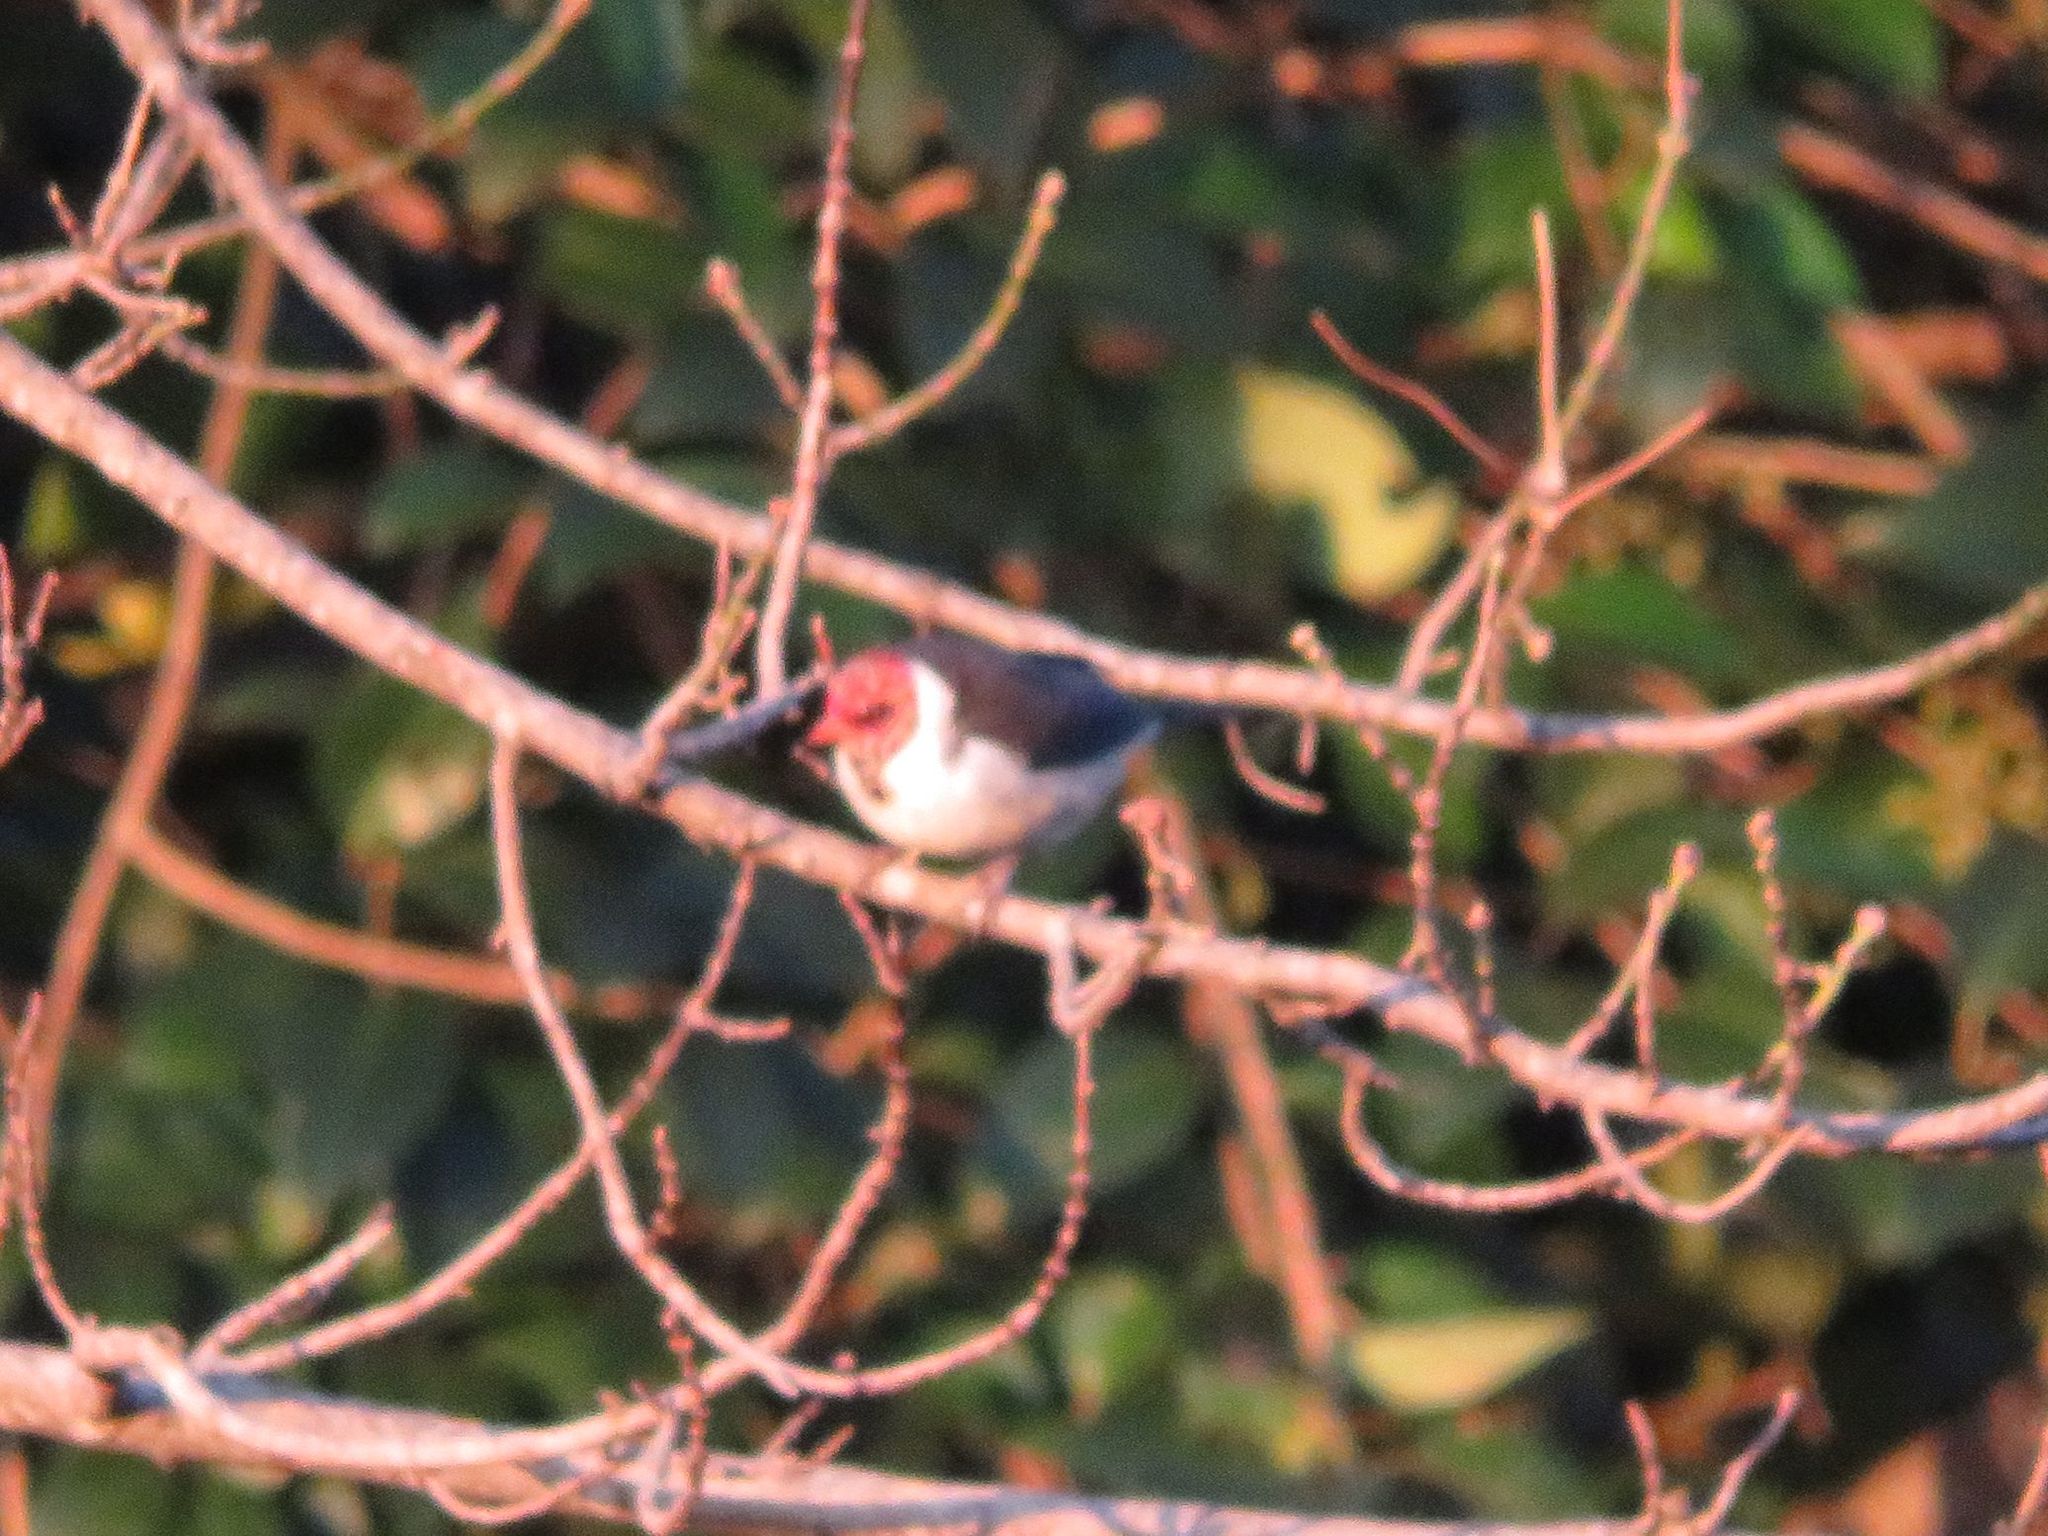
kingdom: Animalia
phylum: Chordata
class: Aves
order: Passeriformes
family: Thraupidae
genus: Paroaria
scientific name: Paroaria capitata
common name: Yellow-billed cardinal
